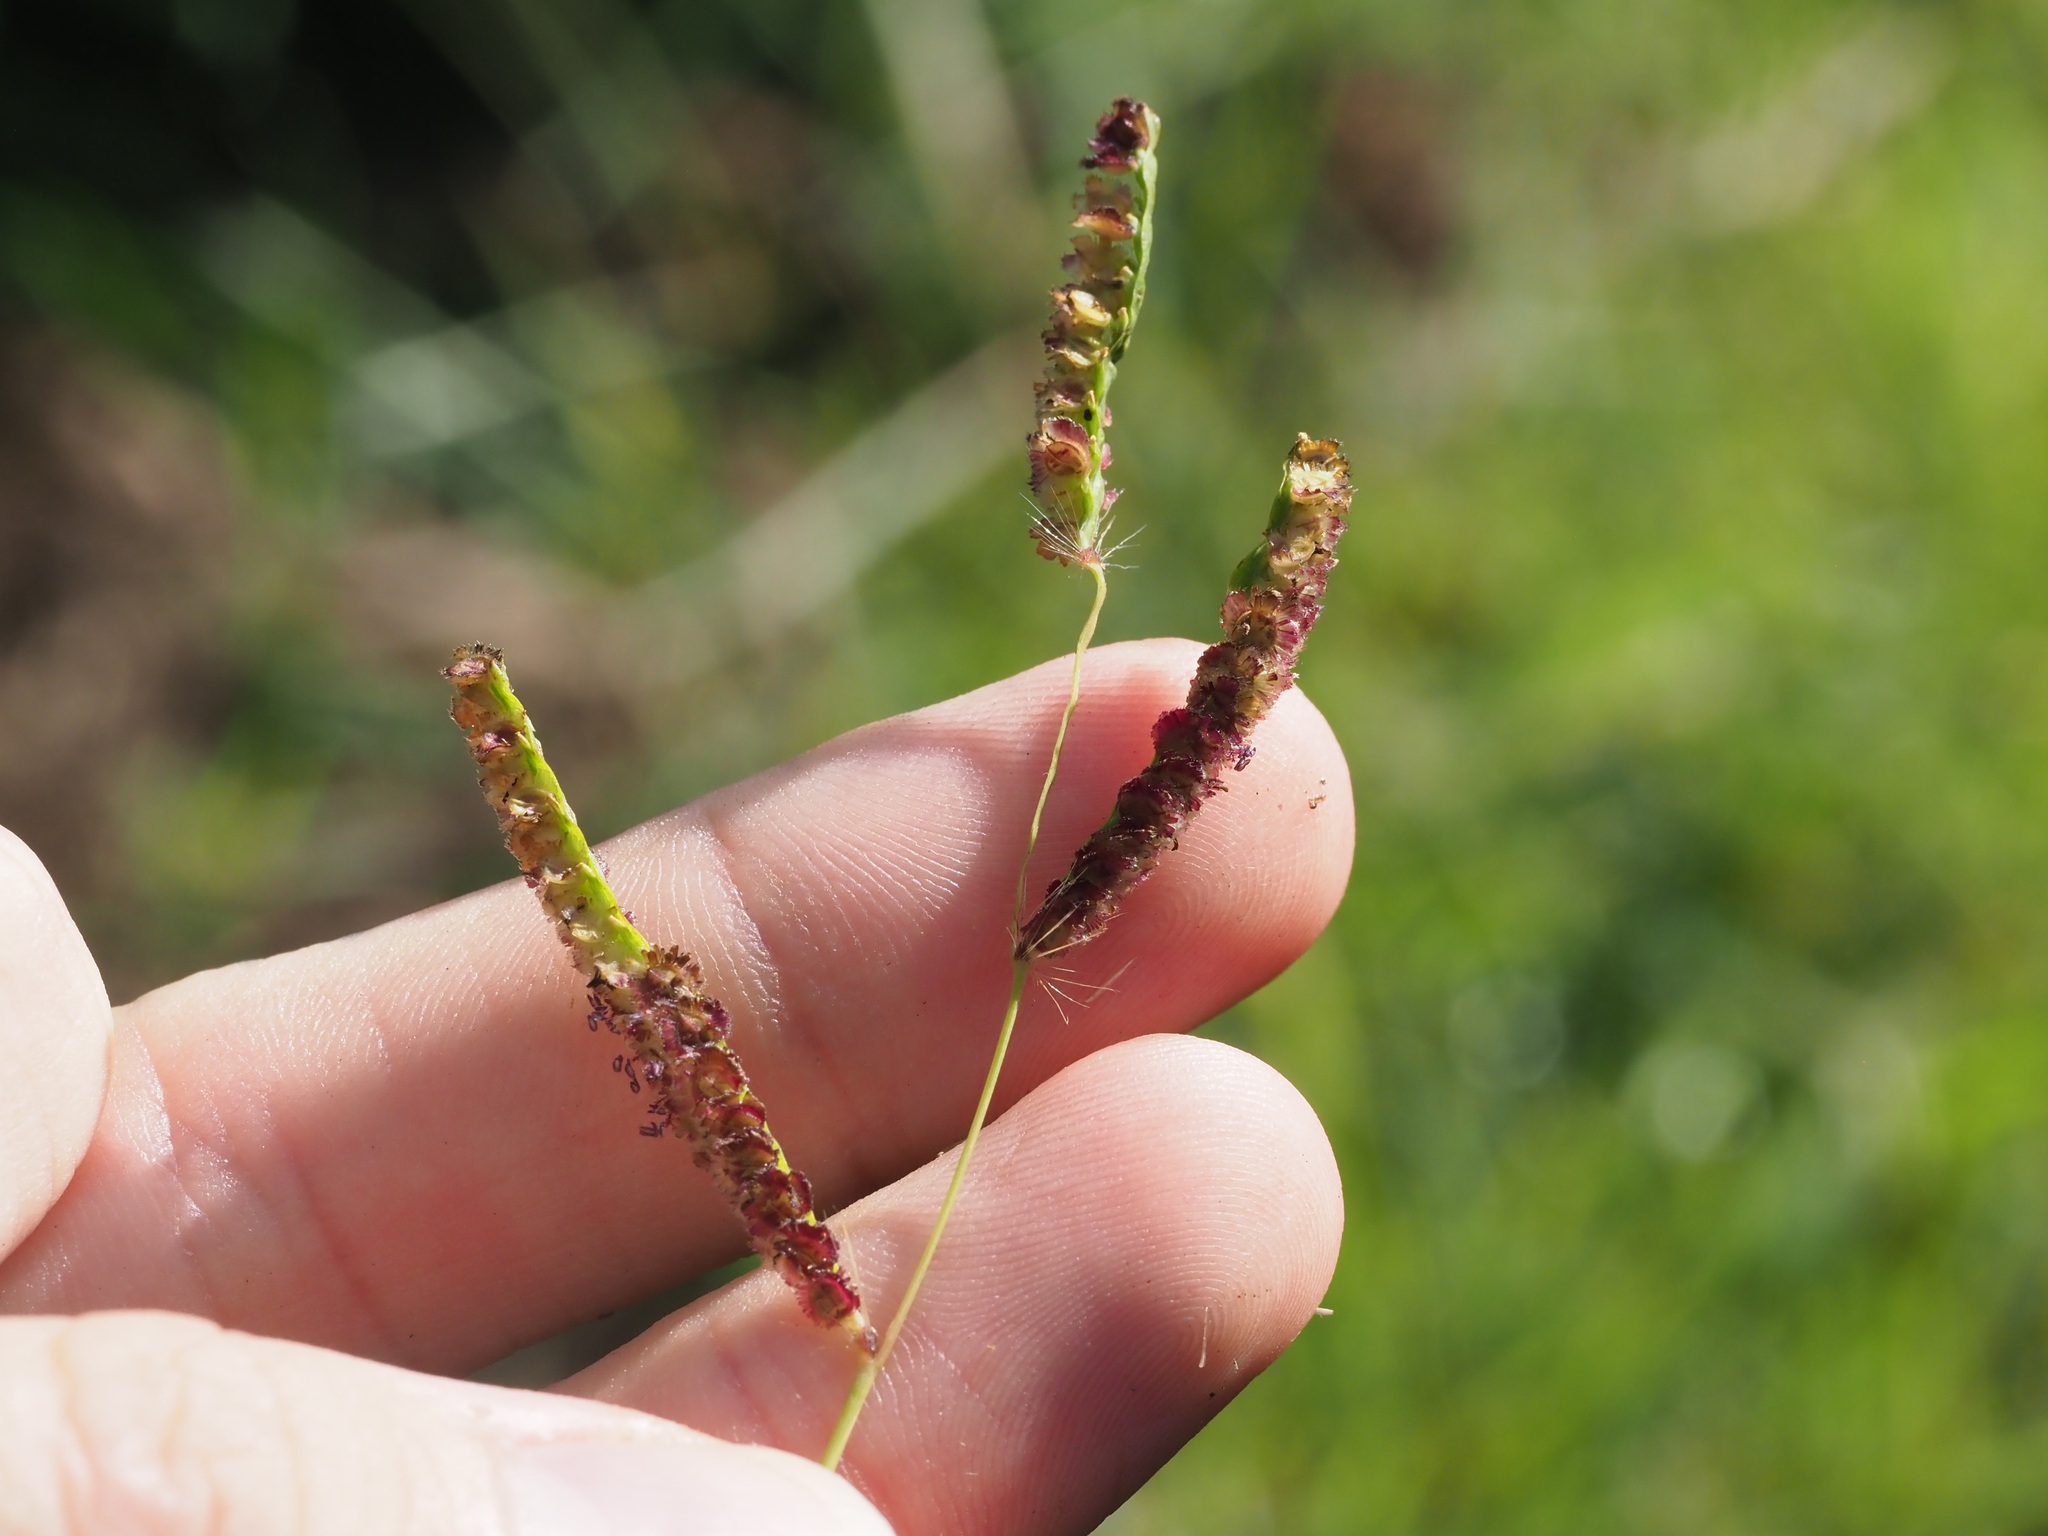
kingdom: Plantae
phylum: Tracheophyta
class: Liliopsida
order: Poales
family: Poaceae
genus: Paspalum
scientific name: Paspalum fimbriatum
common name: Panama crowngrass
